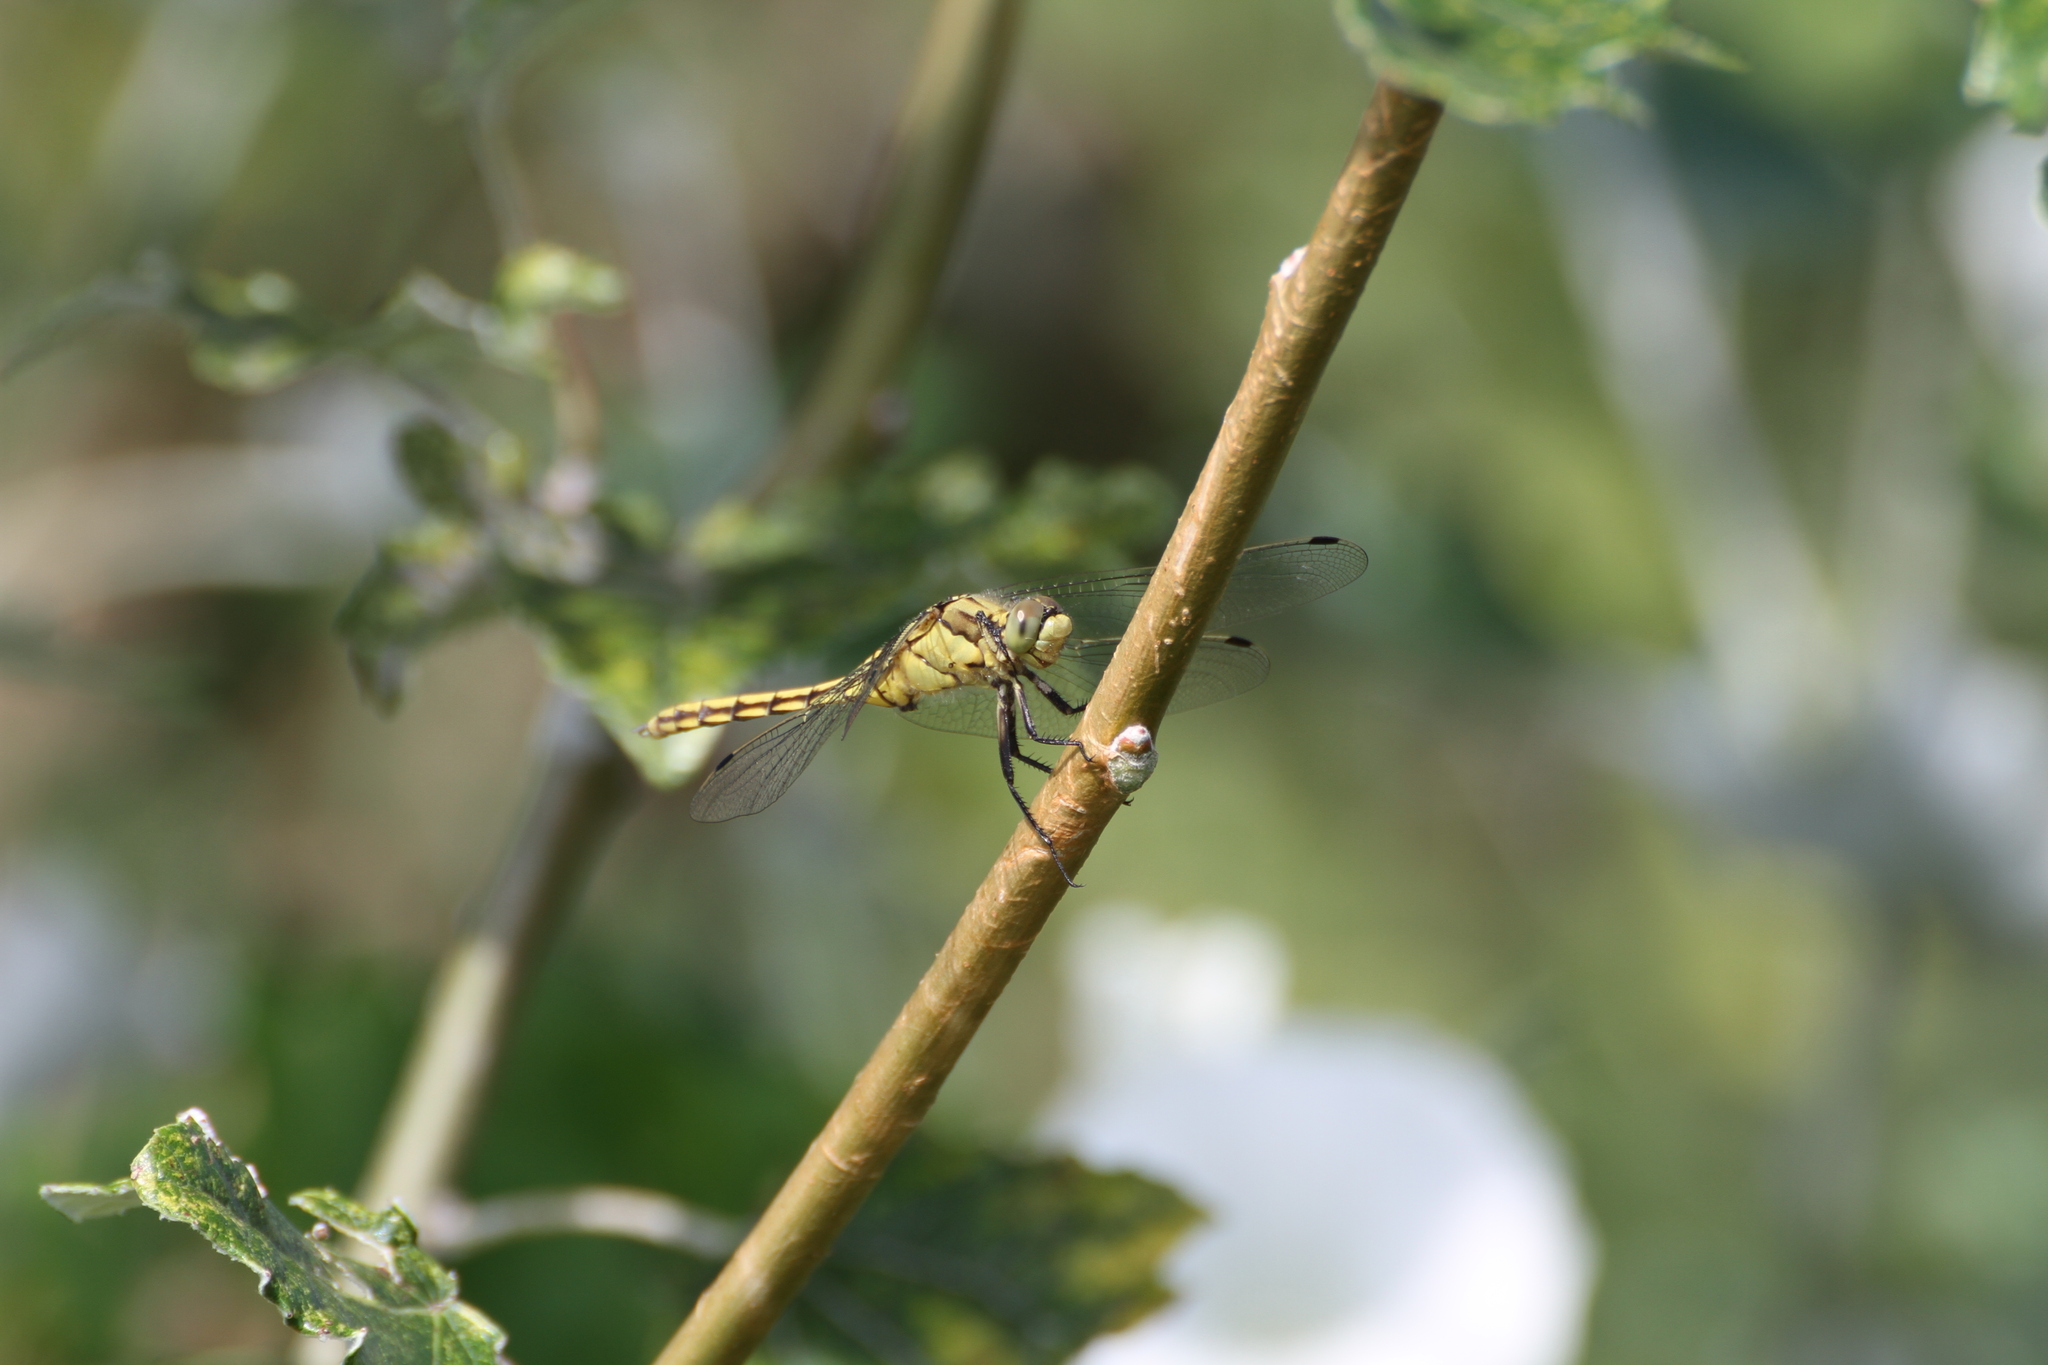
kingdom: Animalia
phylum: Arthropoda
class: Insecta
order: Odonata
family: Libellulidae
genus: Orthetrum
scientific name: Orthetrum cancellatum
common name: Black-tailed skimmer
